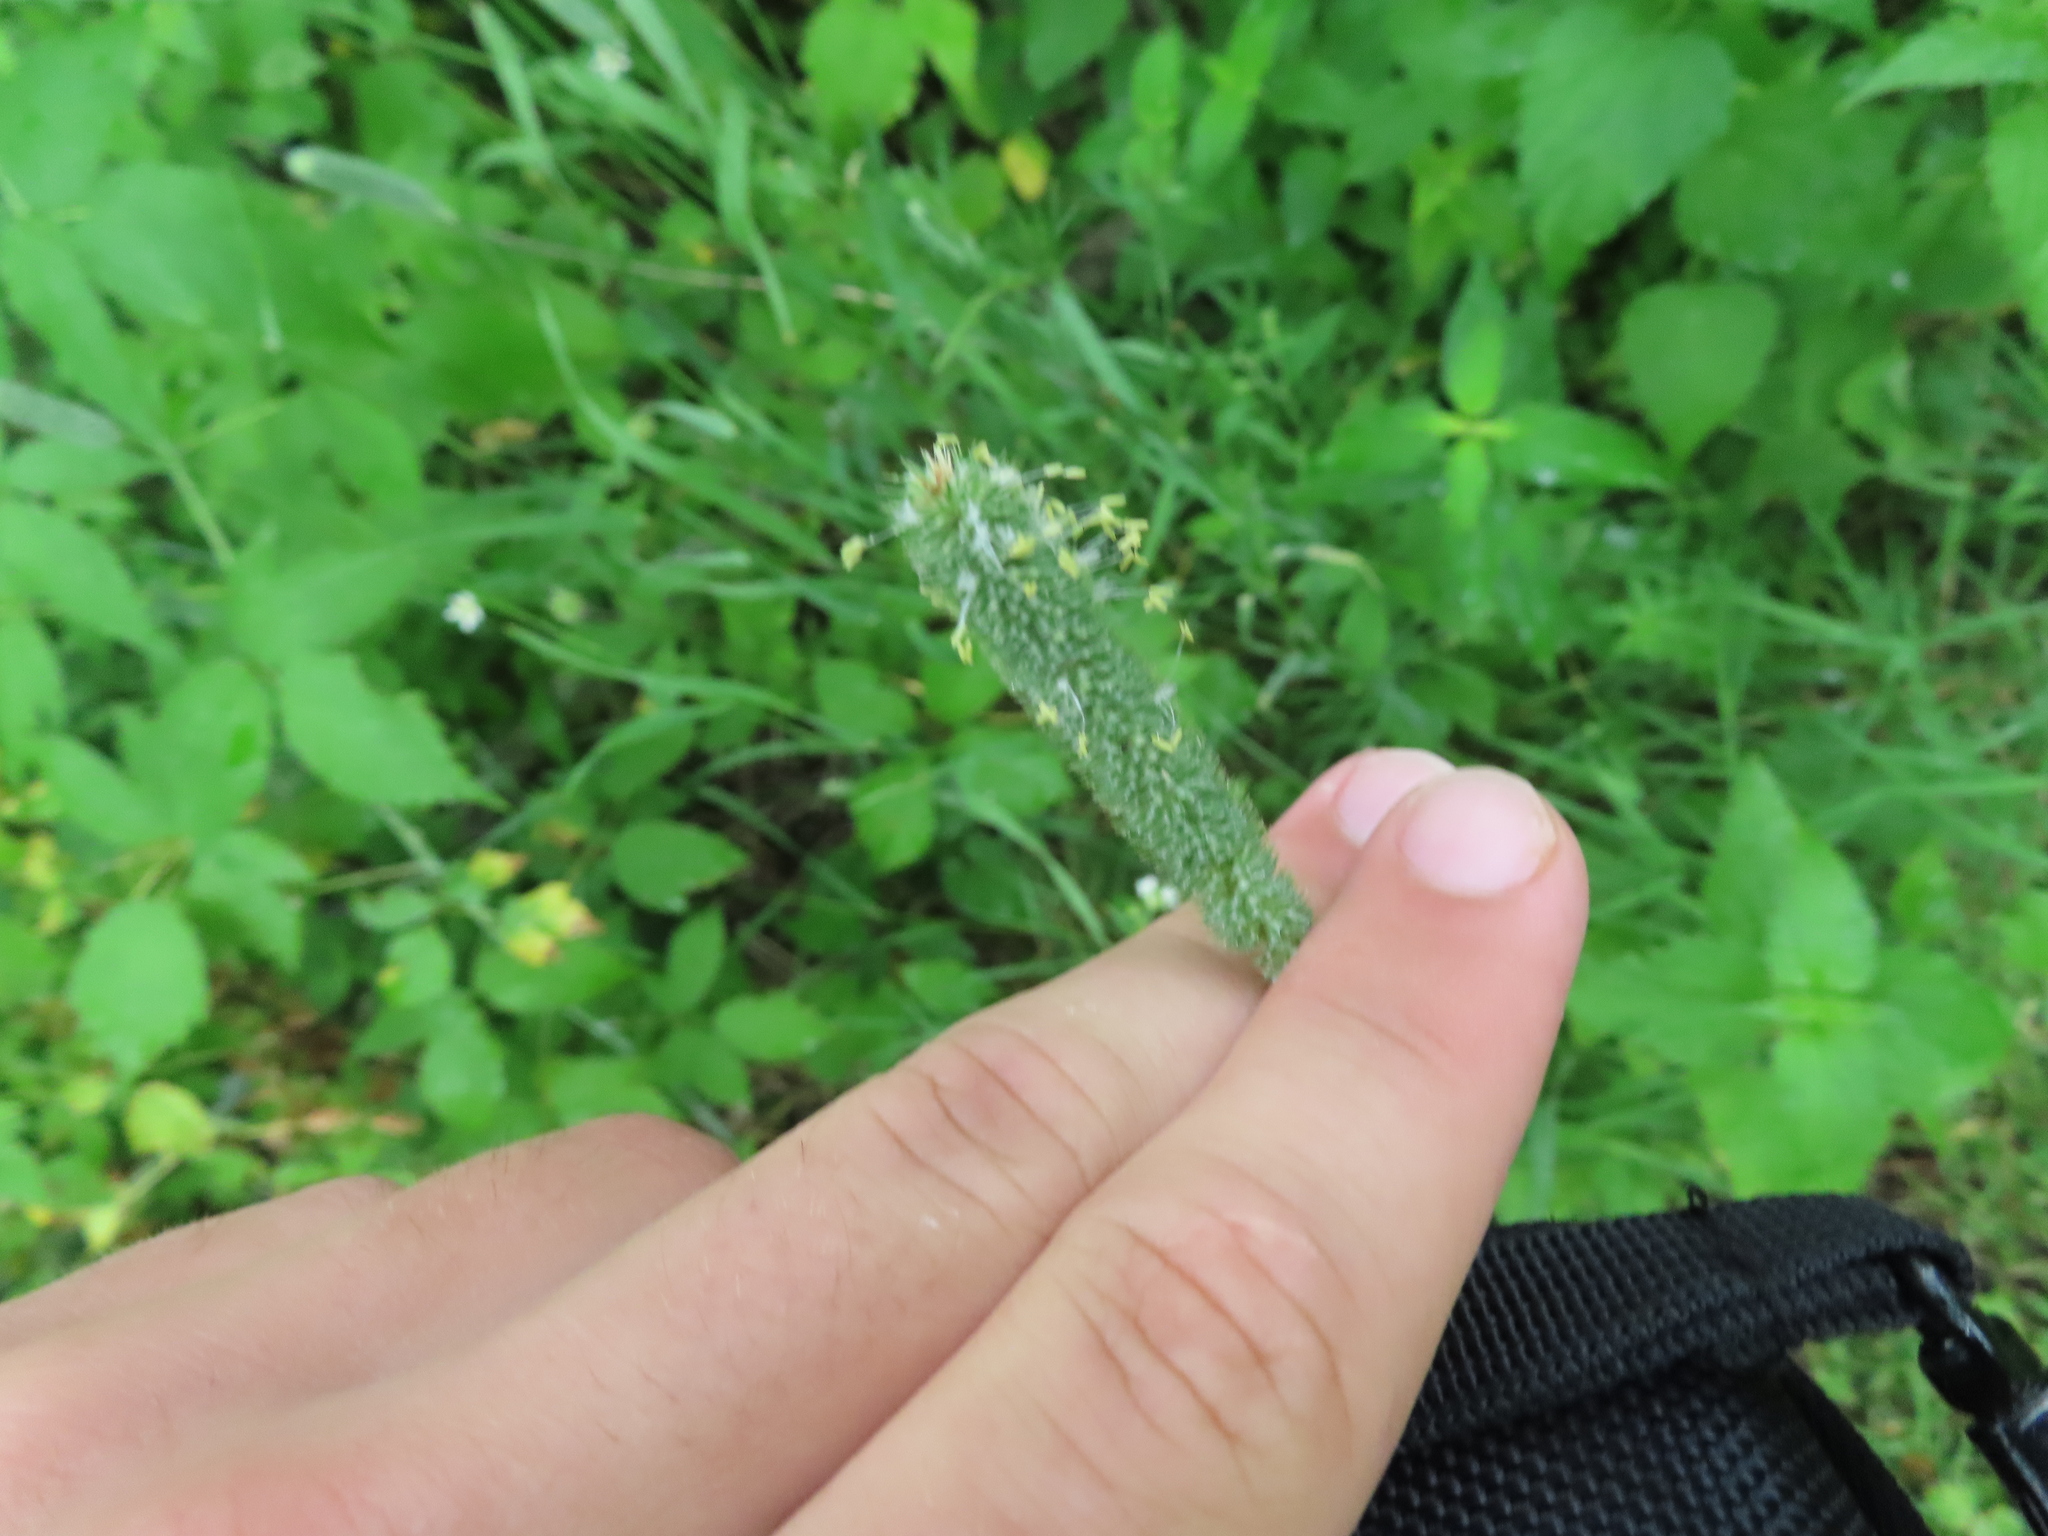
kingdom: Plantae
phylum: Tracheophyta
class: Liliopsida
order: Poales
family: Poaceae
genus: Phleum
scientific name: Phleum pratense
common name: Timothy grass
